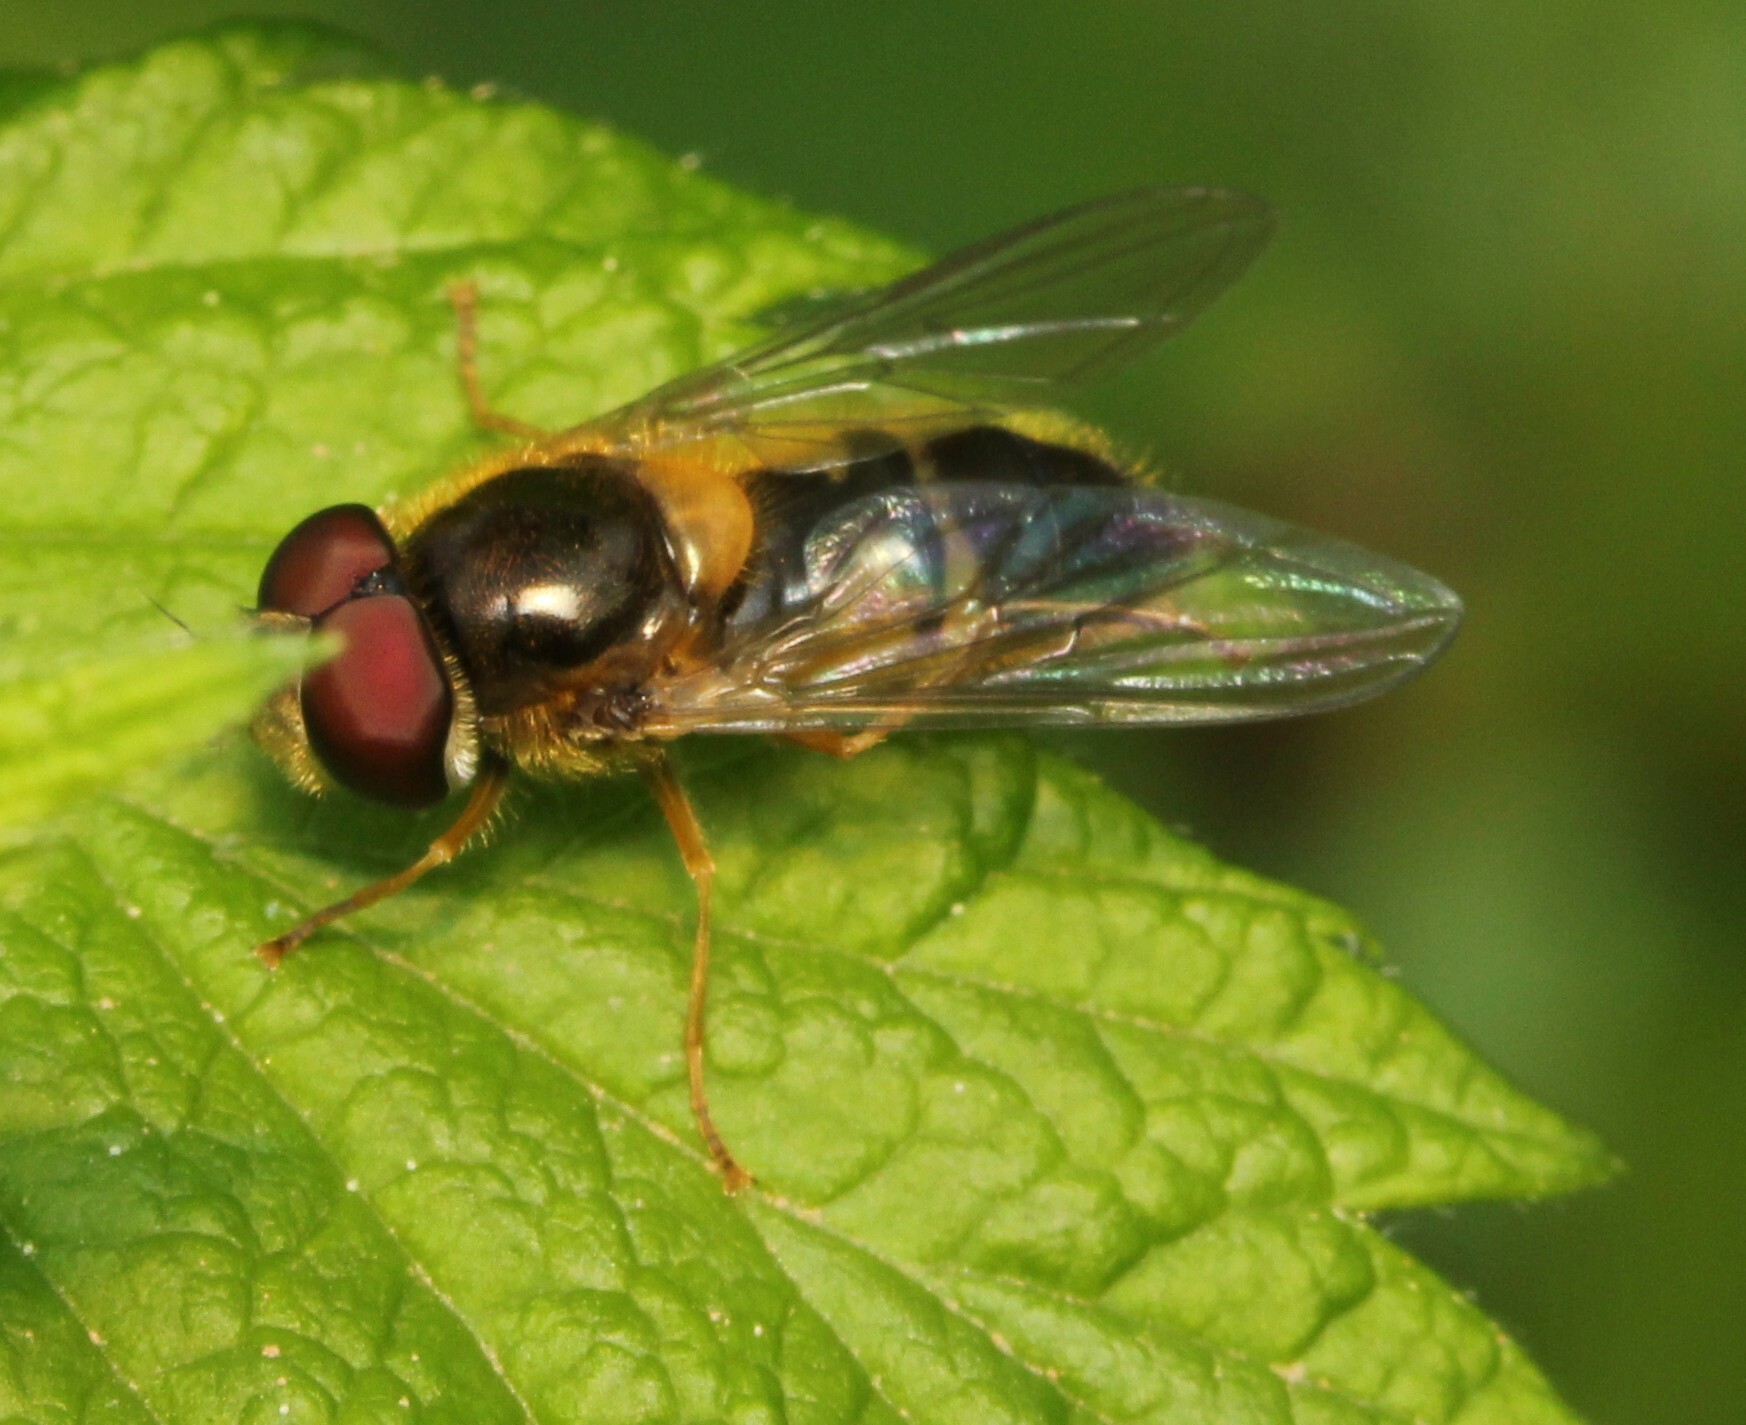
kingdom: Animalia
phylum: Arthropoda
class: Insecta
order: Diptera
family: Syrphidae
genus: Epistrophe
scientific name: Epistrophe eligans
